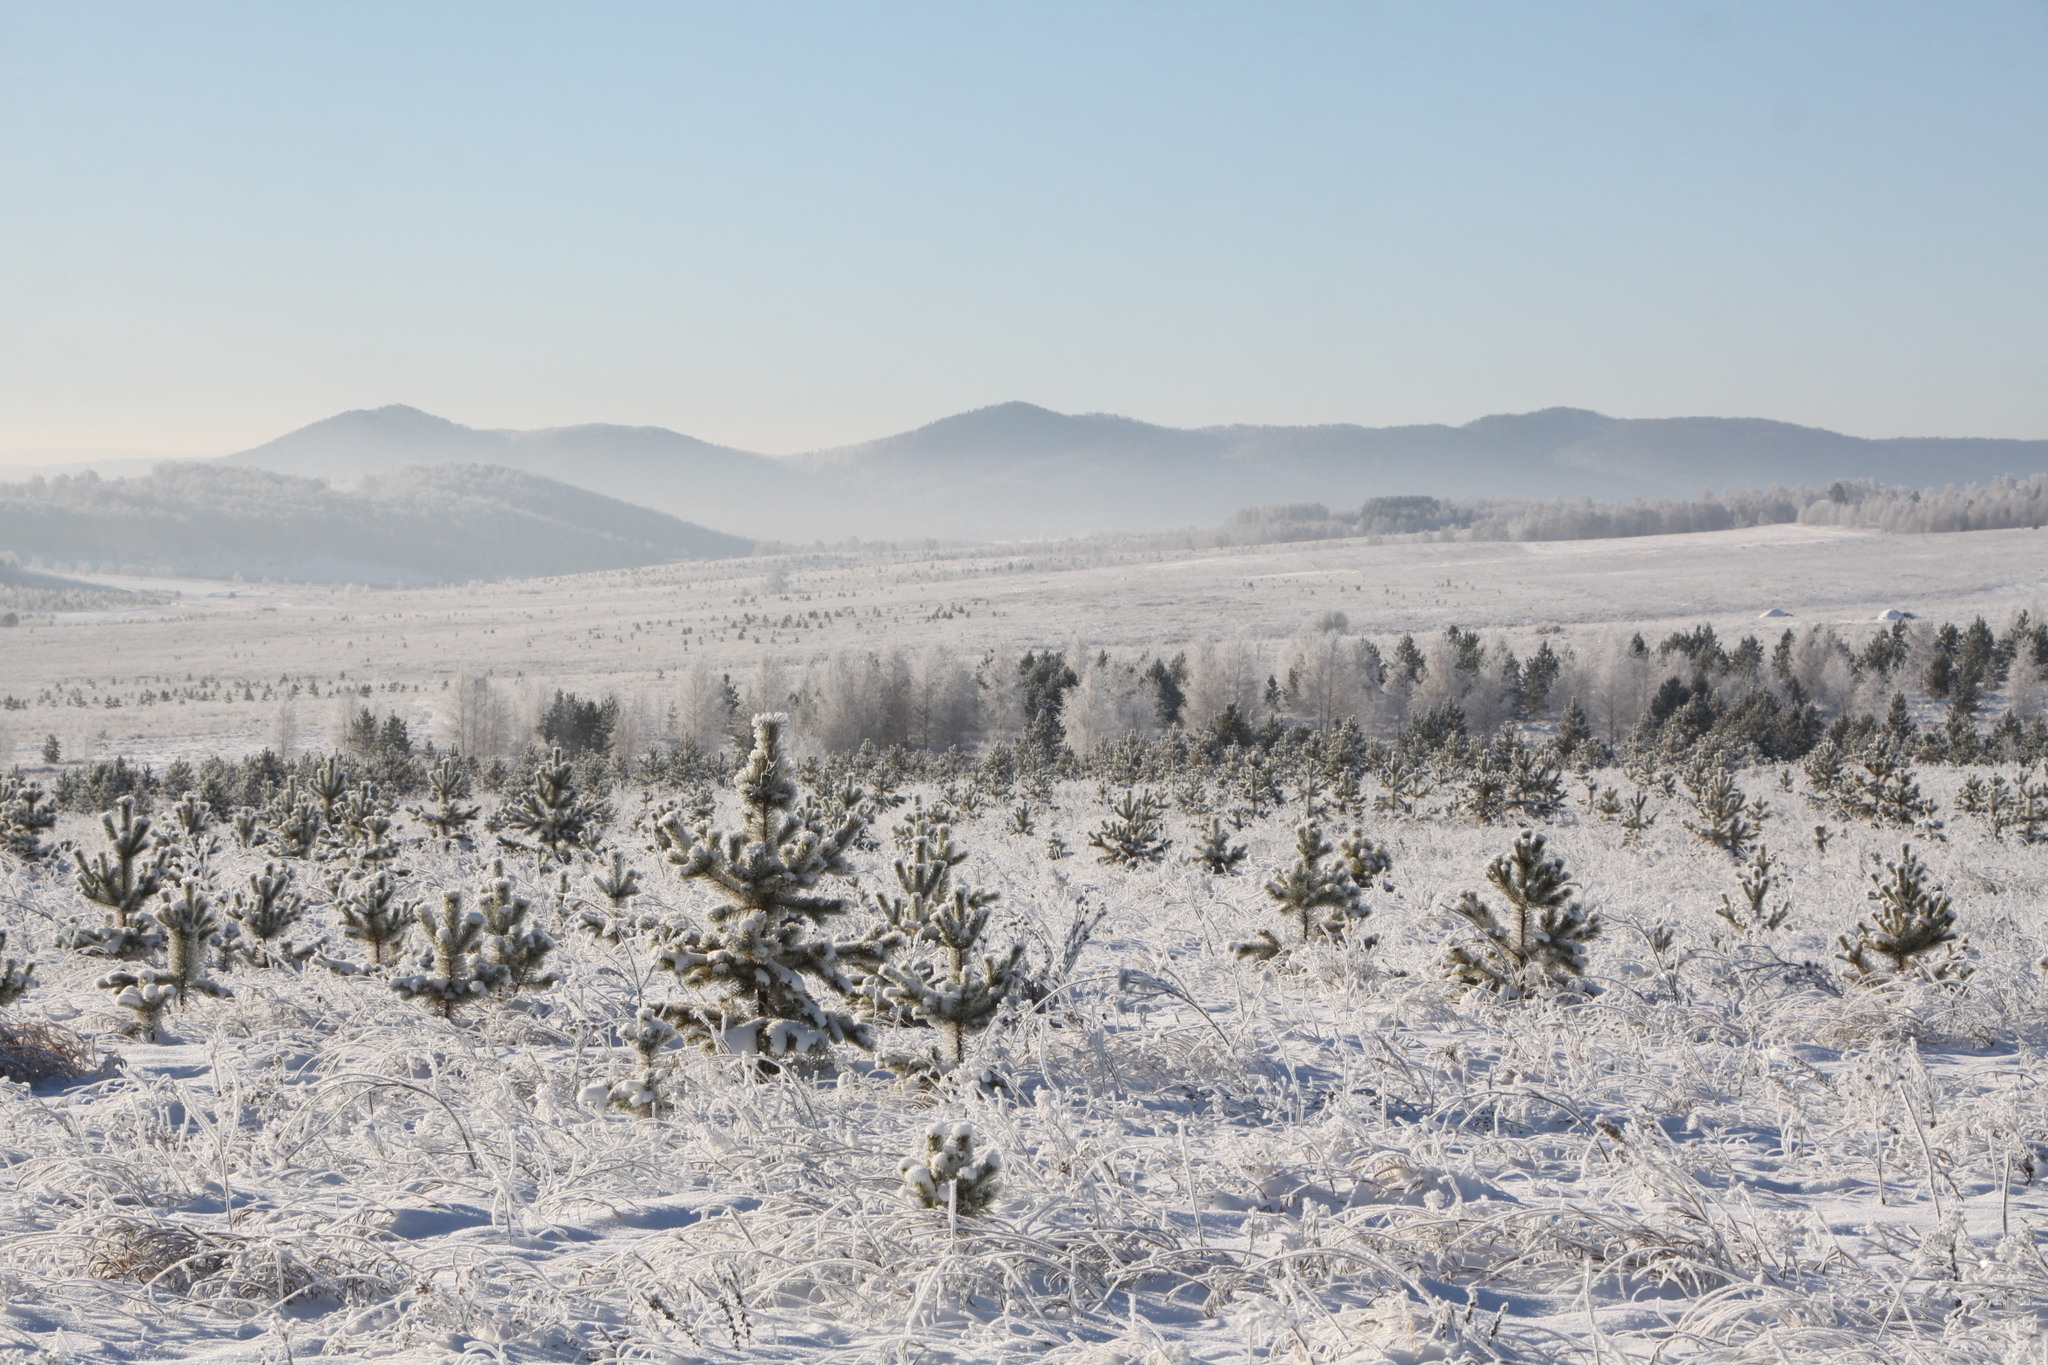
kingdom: Plantae
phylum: Tracheophyta
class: Pinopsida
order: Pinales
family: Pinaceae
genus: Pinus
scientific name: Pinus sylvestris
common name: Scots pine
